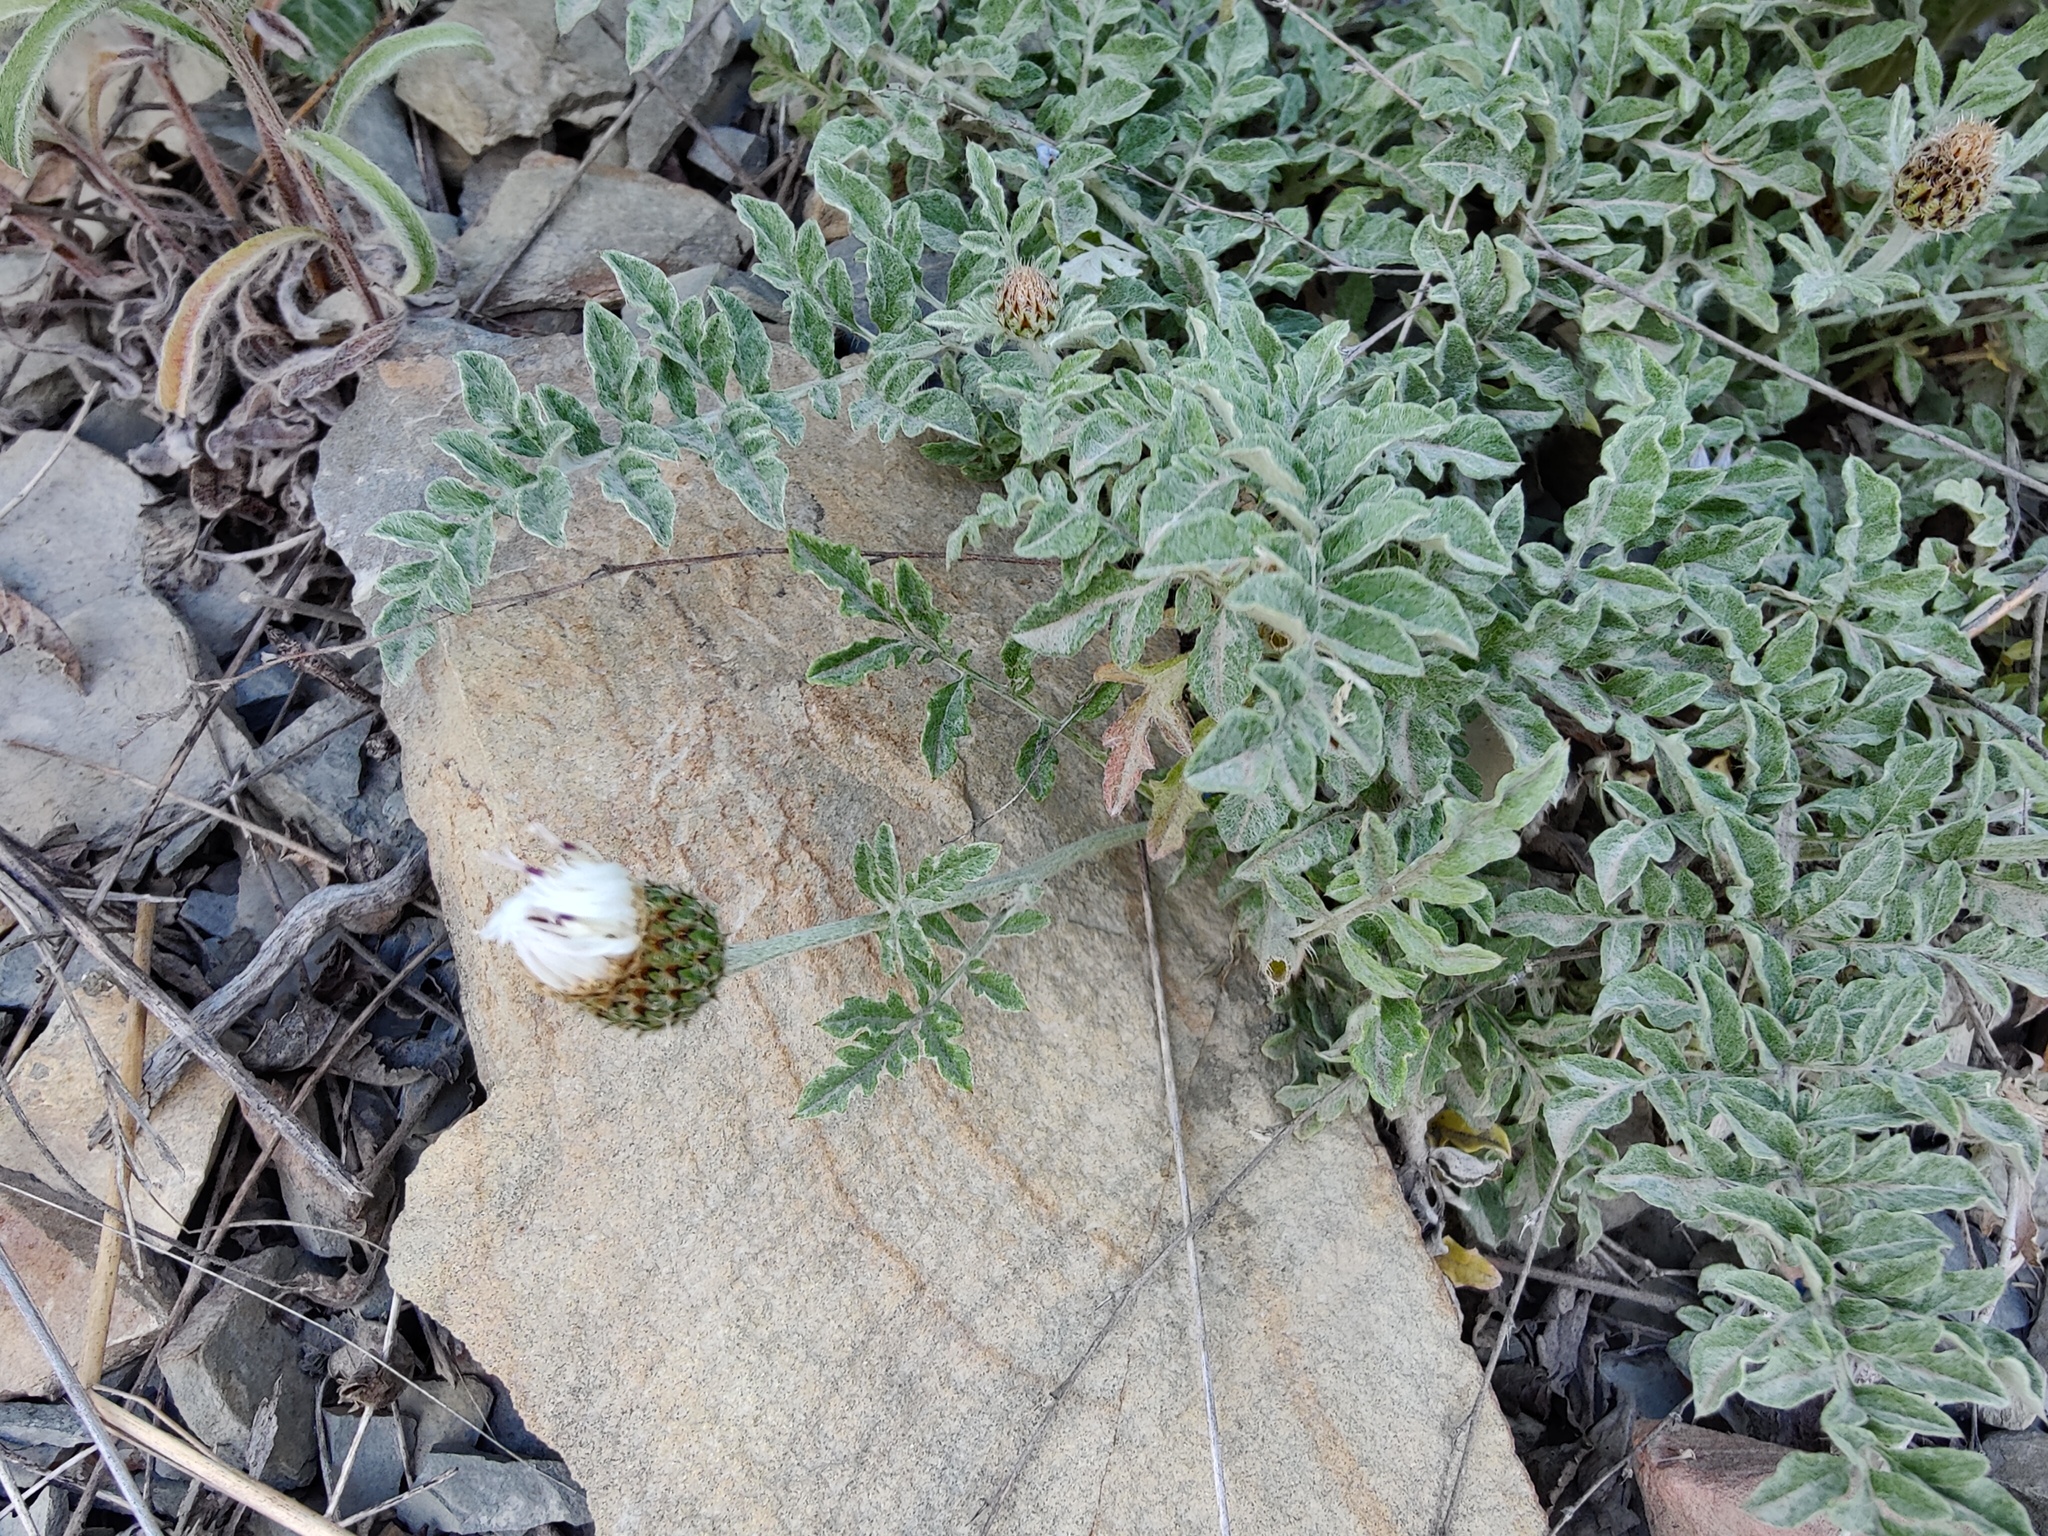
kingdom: Plantae
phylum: Tracheophyta
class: Magnoliopsida
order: Asterales
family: Asteraceae
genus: Psephellus
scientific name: Psephellus declinatus
